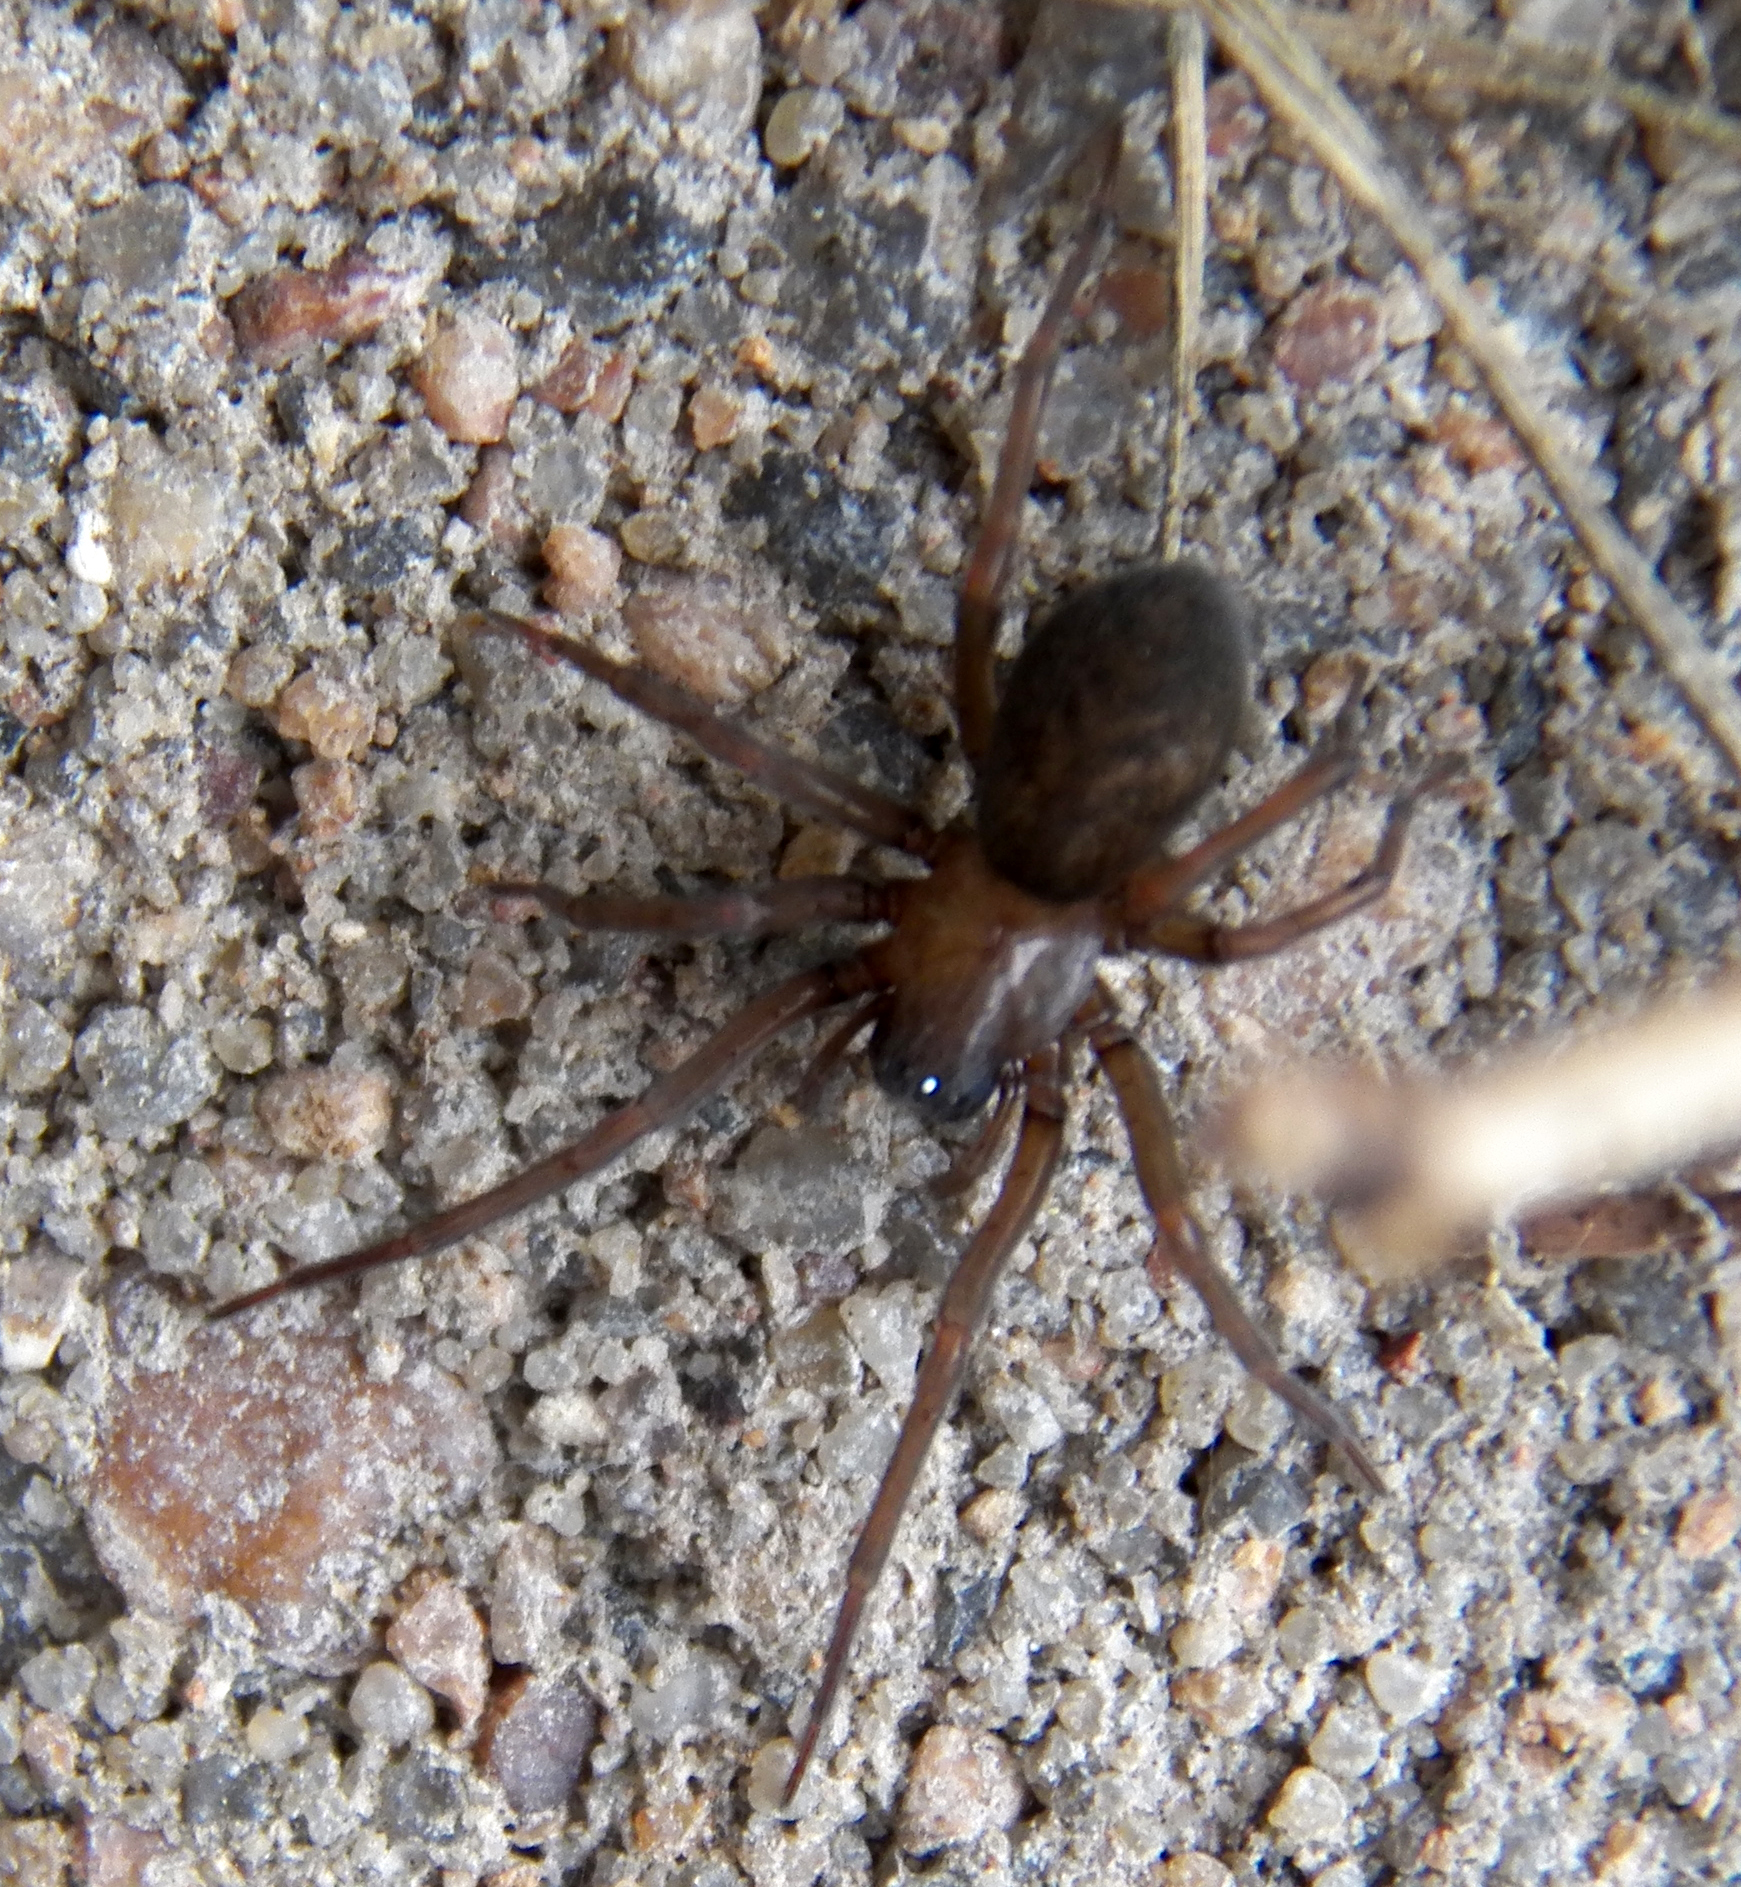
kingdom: Animalia
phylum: Arthropoda
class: Arachnida
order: Araneae
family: Desidae
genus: Metaltella
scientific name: Metaltella simoni
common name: Cribellate spider
